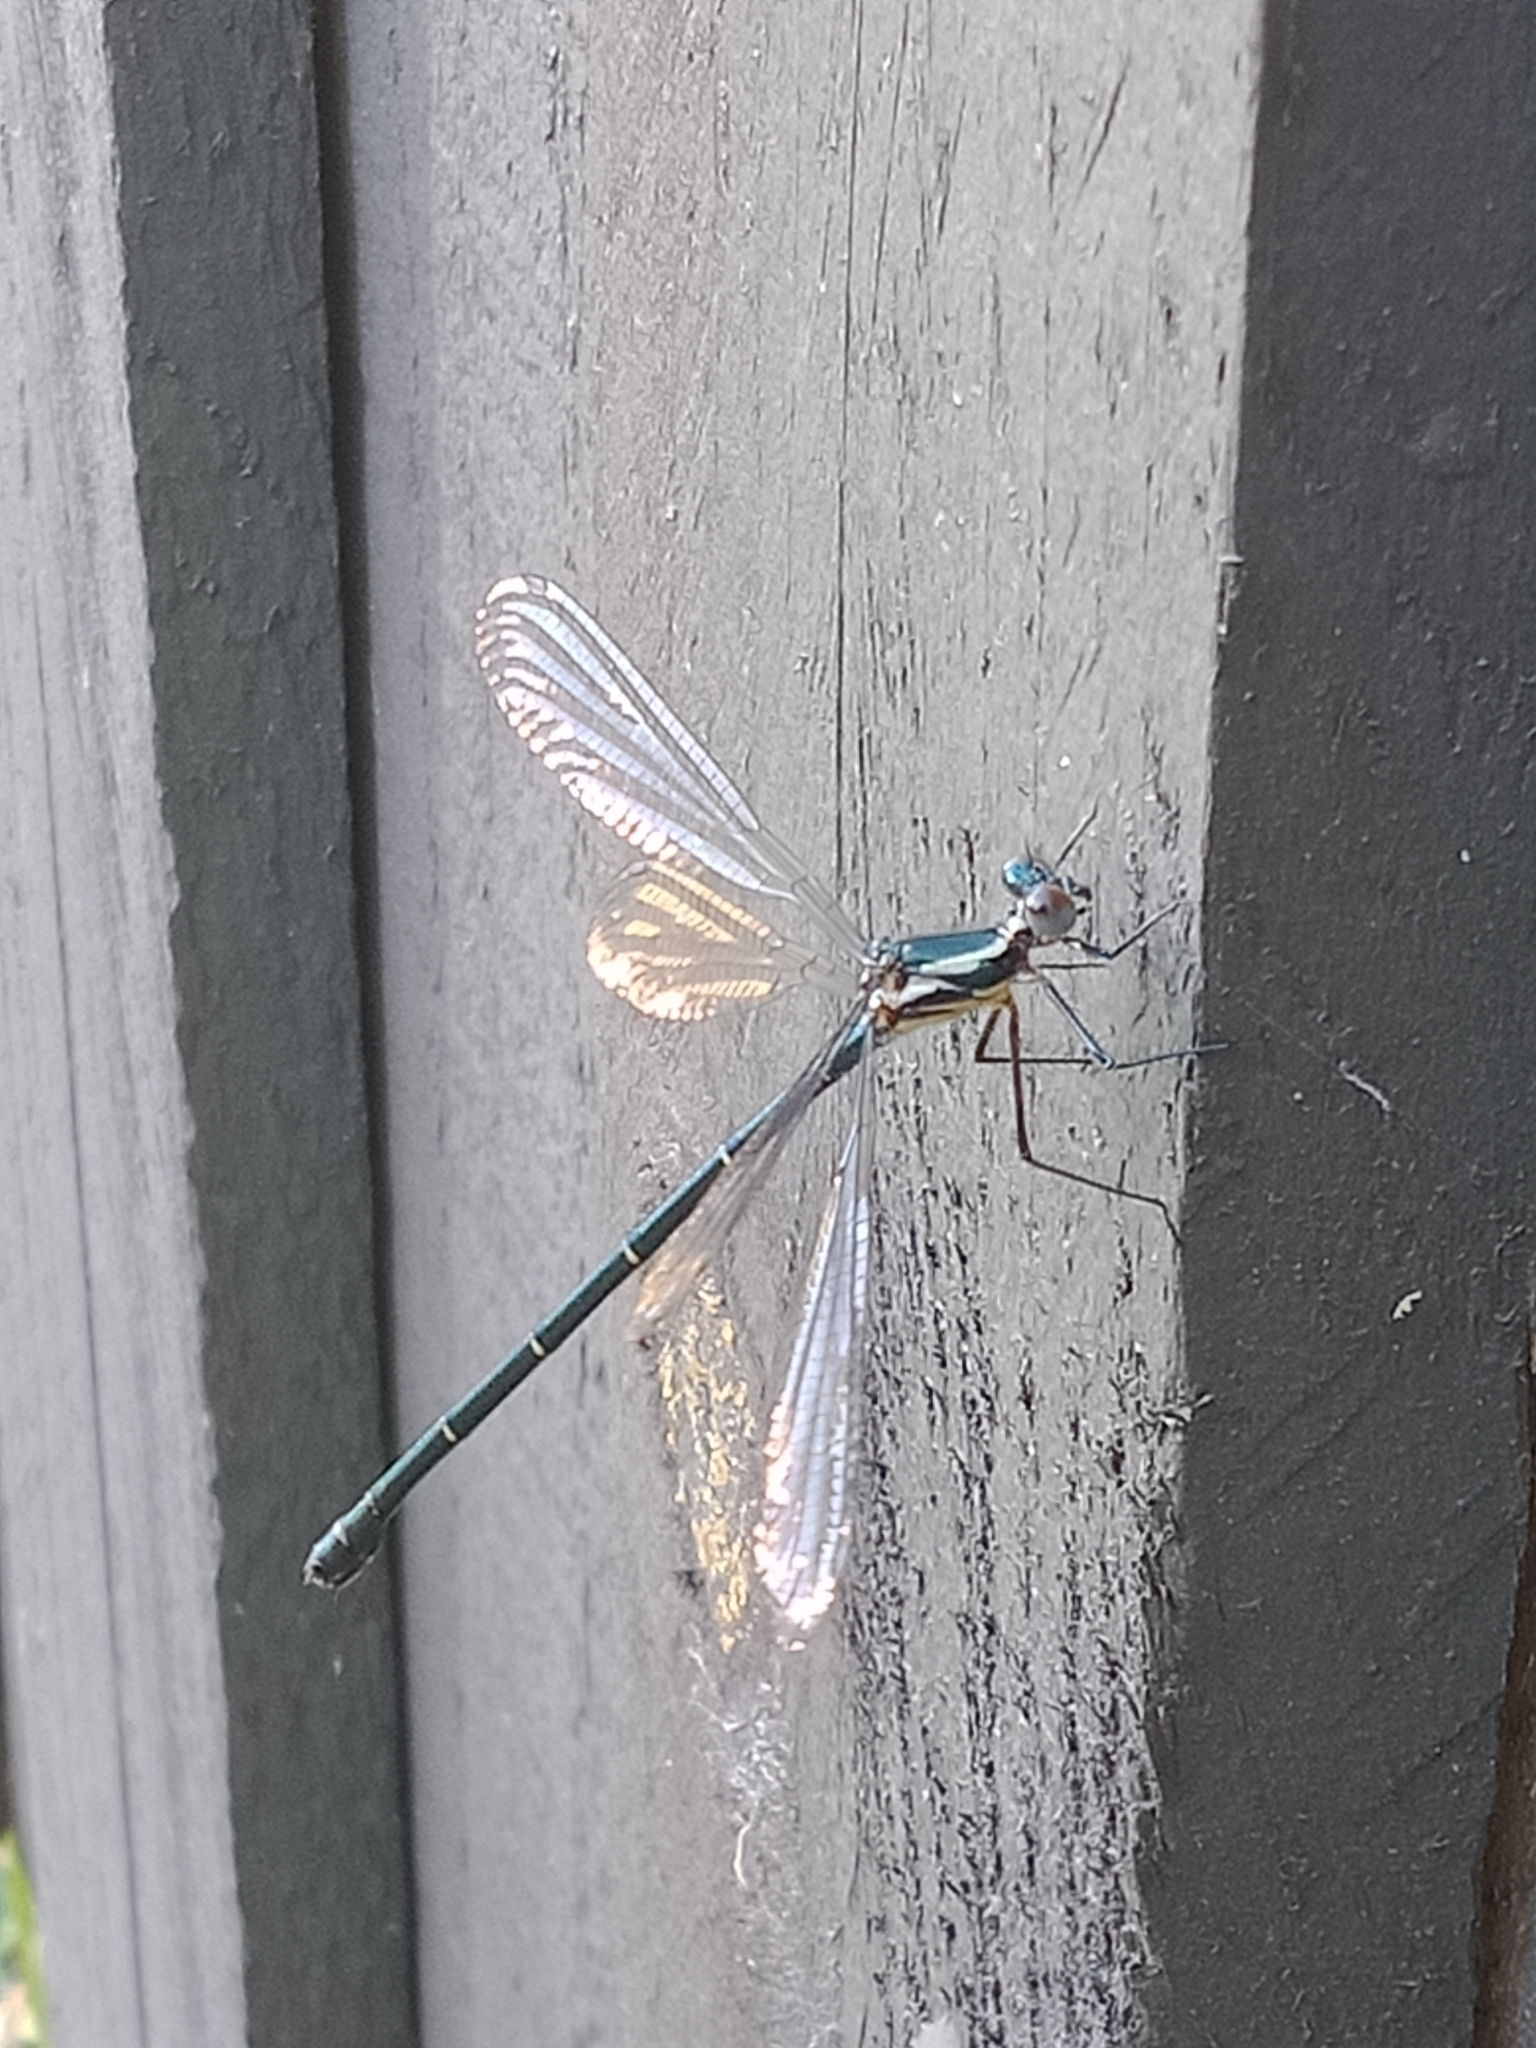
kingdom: Animalia
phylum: Arthropoda
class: Insecta
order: Odonata
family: Argiolestidae
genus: Austroargiolestes
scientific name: Austroargiolestes icteromelas
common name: Common flatwing
